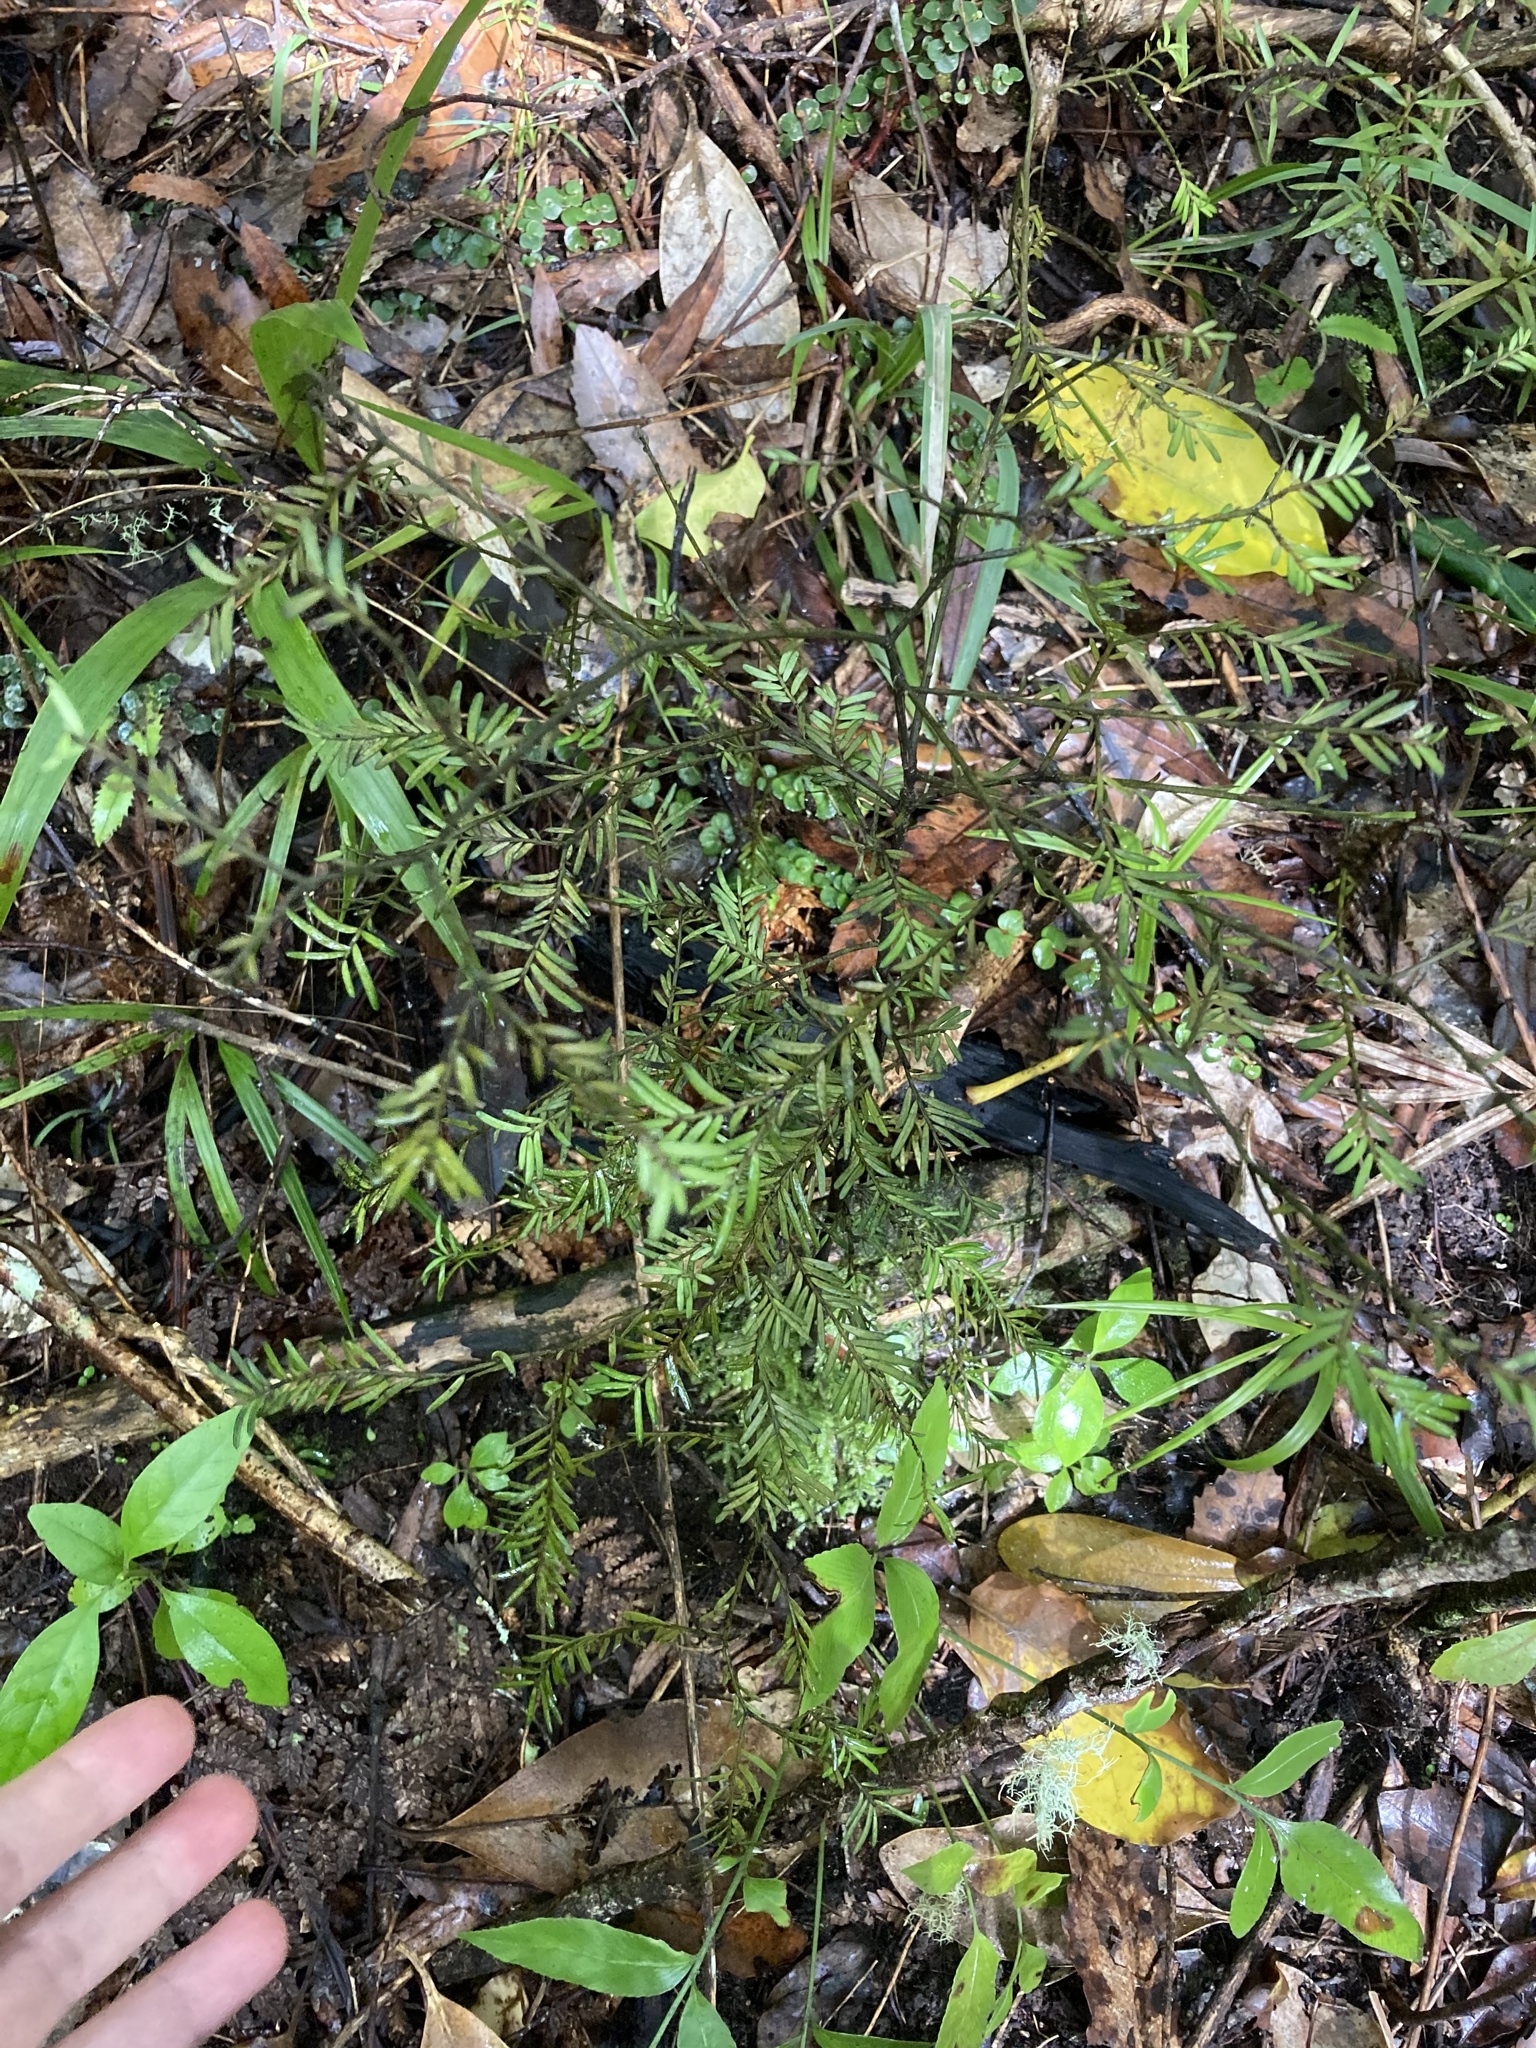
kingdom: Plantae
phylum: Tracheophyta
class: Pinopsida
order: Pinales
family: Podocarpaceae
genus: Prumnopitys
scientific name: Prumnopitys taxifolia
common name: Matai
